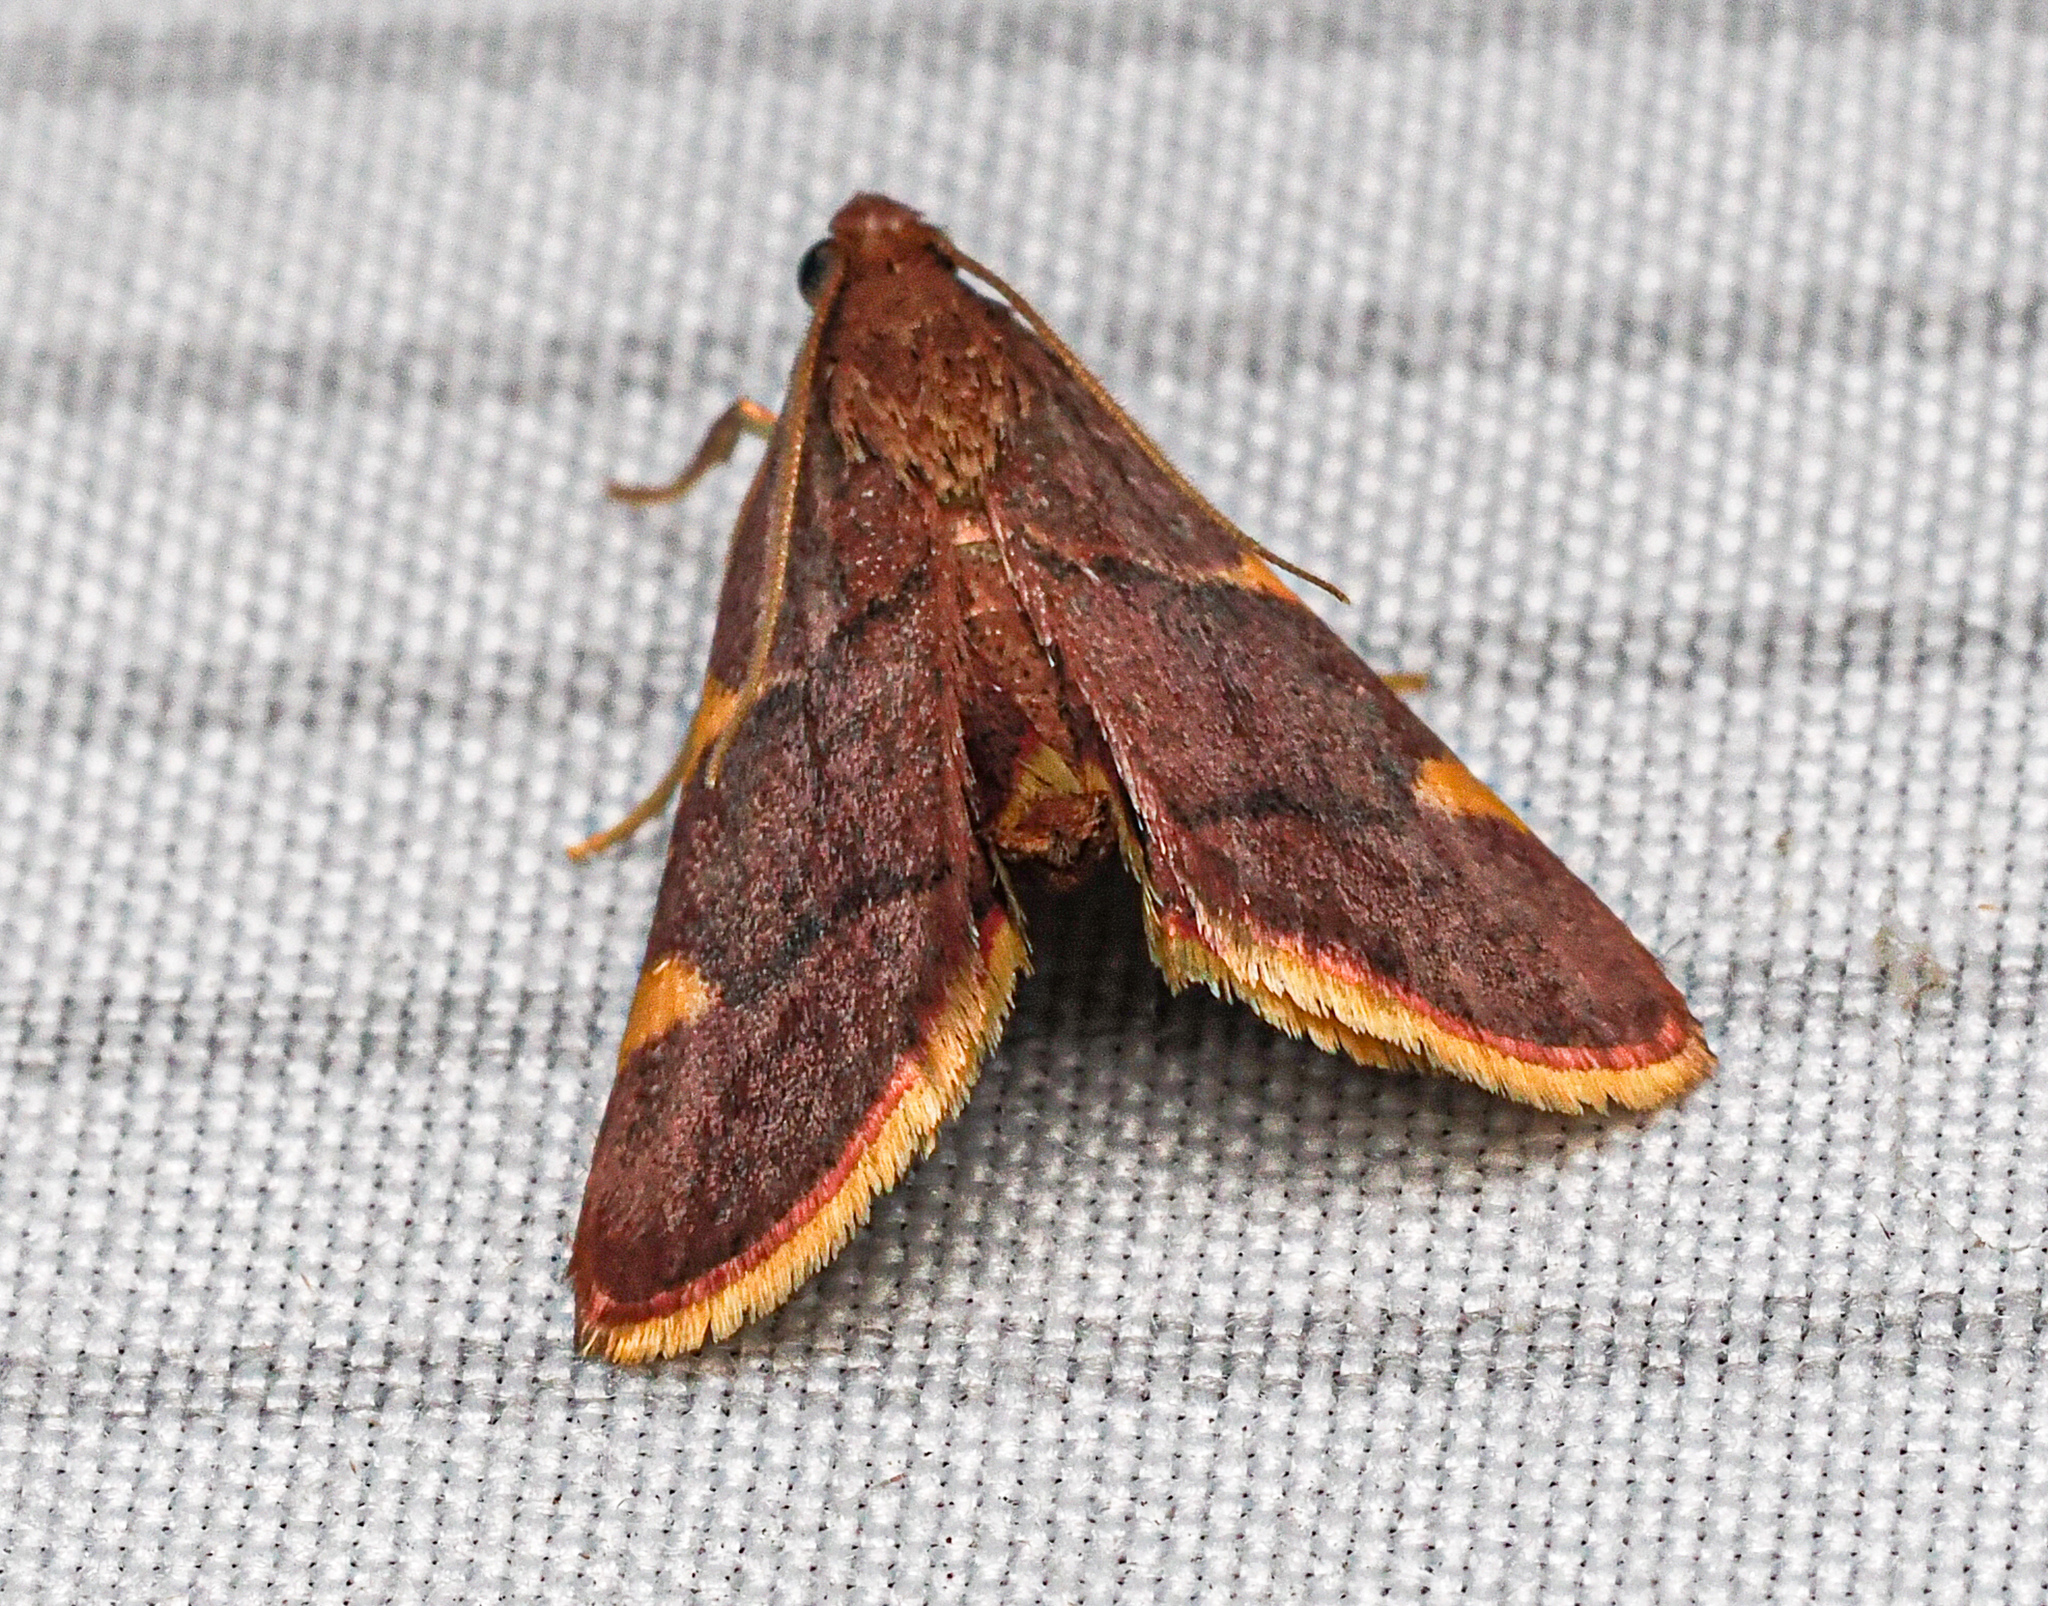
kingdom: Animalia
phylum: Arthropoda
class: Insecta
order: Lepidoptera
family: Pyralidae
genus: Hypsopygia
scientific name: Hypsopygia olinalis
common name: Yellow-fringed dolichomia moth
